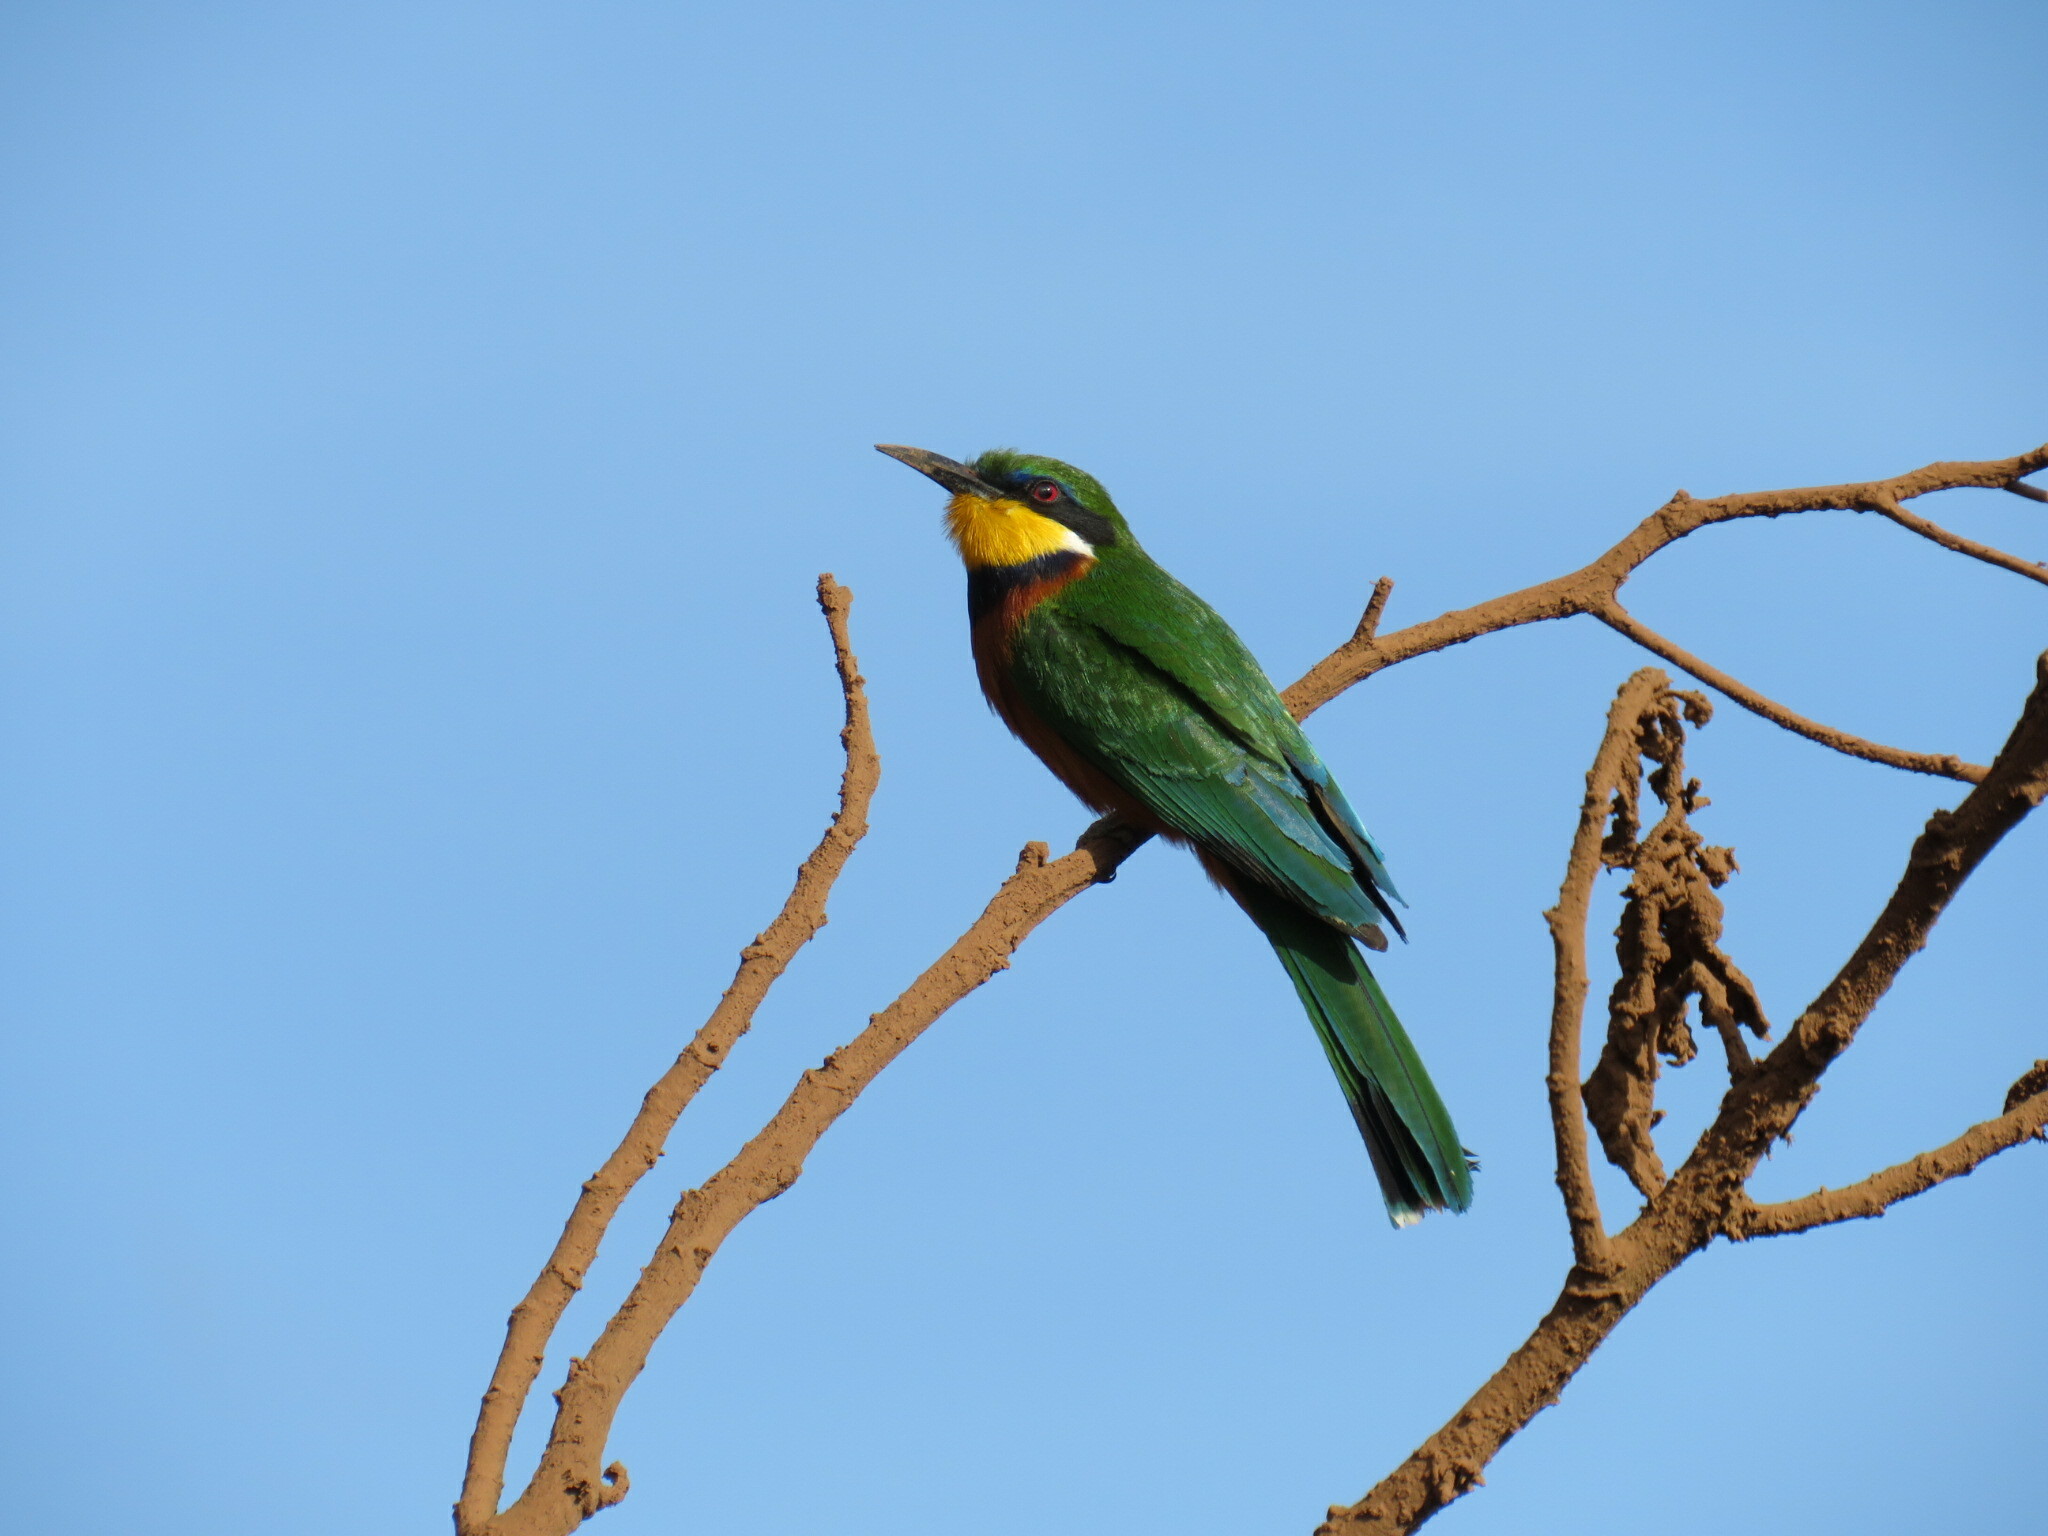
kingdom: Animalia
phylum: Chordata
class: Aves
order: Coraciiformes
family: Meropidae
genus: Merops
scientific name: Merops oreobates
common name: Cinnamon-chested bee-eater
